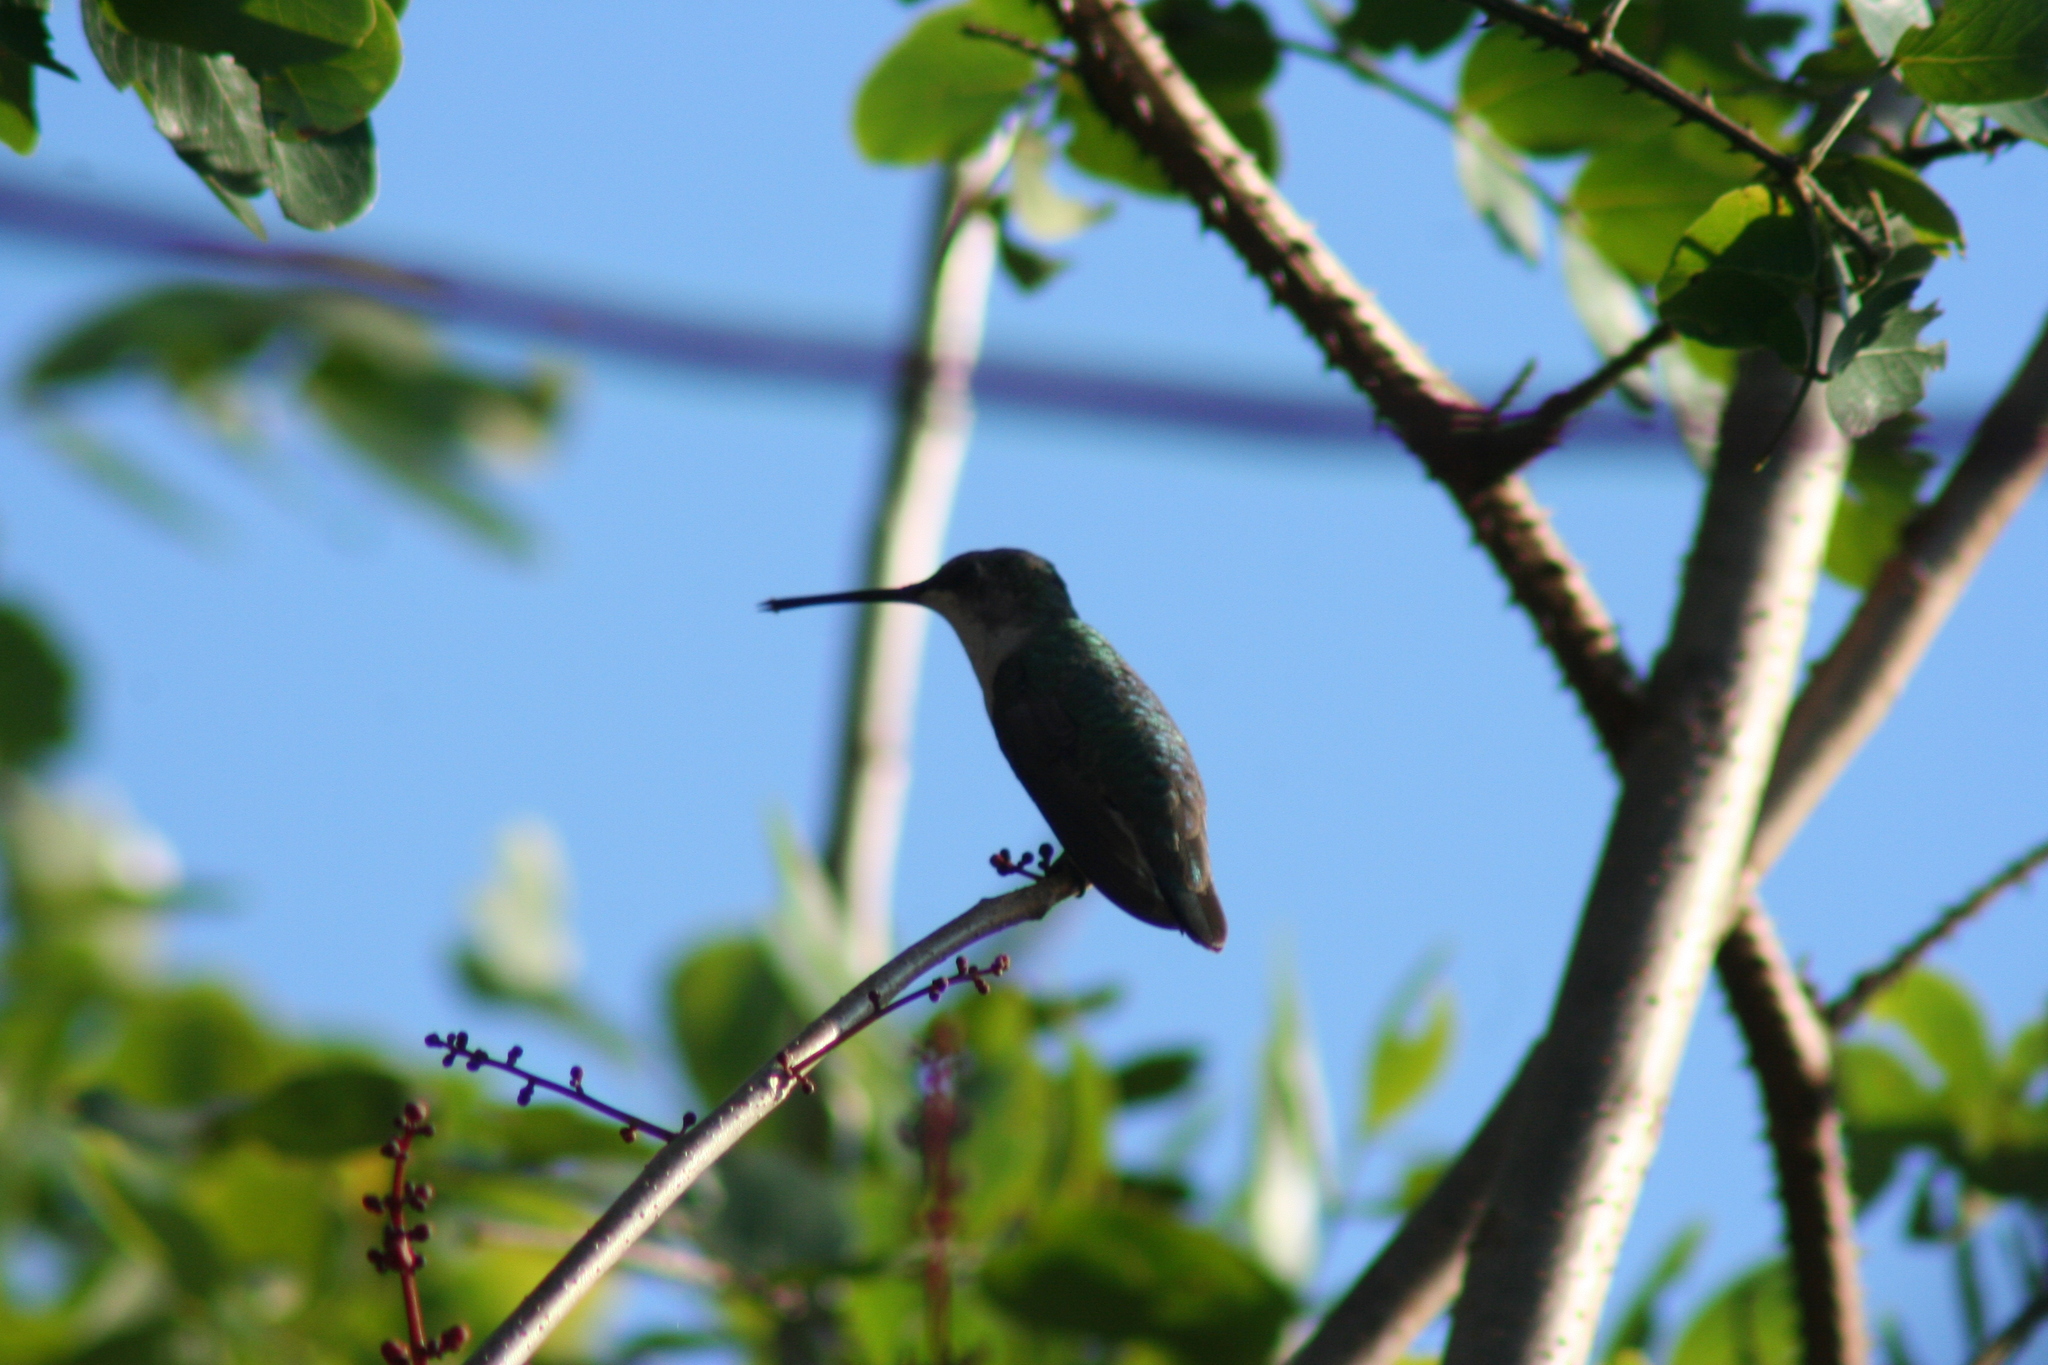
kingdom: Animalia
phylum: Chordata
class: Aves
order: Apodiformes
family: Trochilidae
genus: Archilochus
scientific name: Archilochus colubris
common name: Ruby-throated hummingbird
